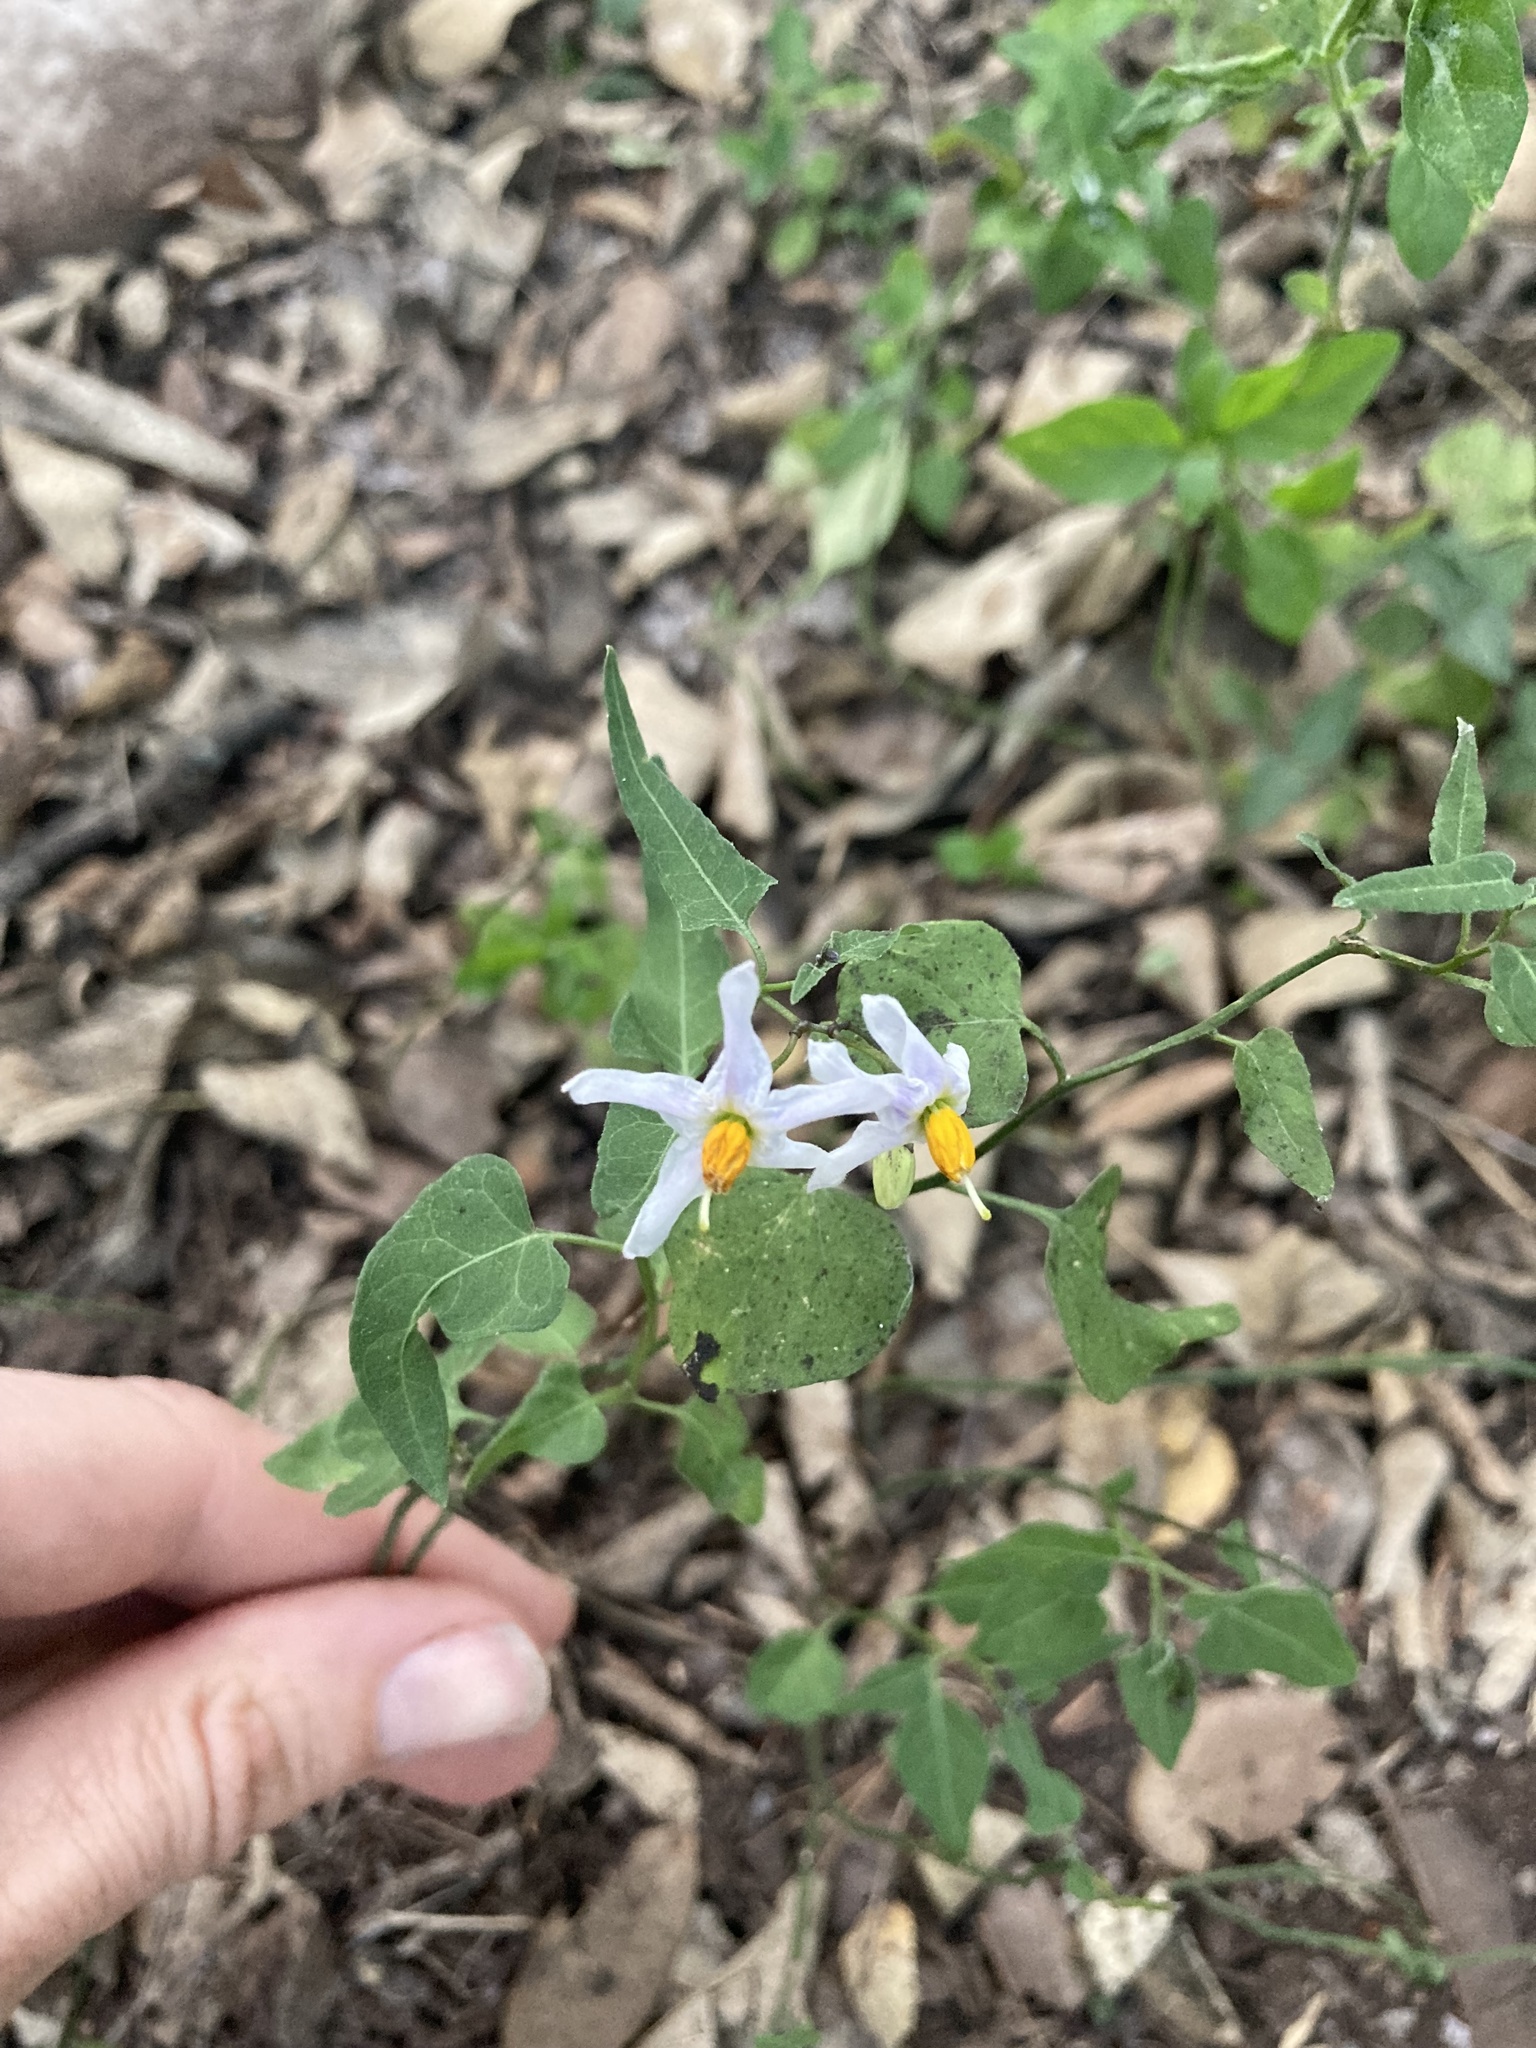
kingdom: Plantae
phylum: Tracheophyta
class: Magnoliopsida
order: Solanales
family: Solanaceae
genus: Solanum
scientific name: Solanum triquetrum
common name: Texas nightshade
